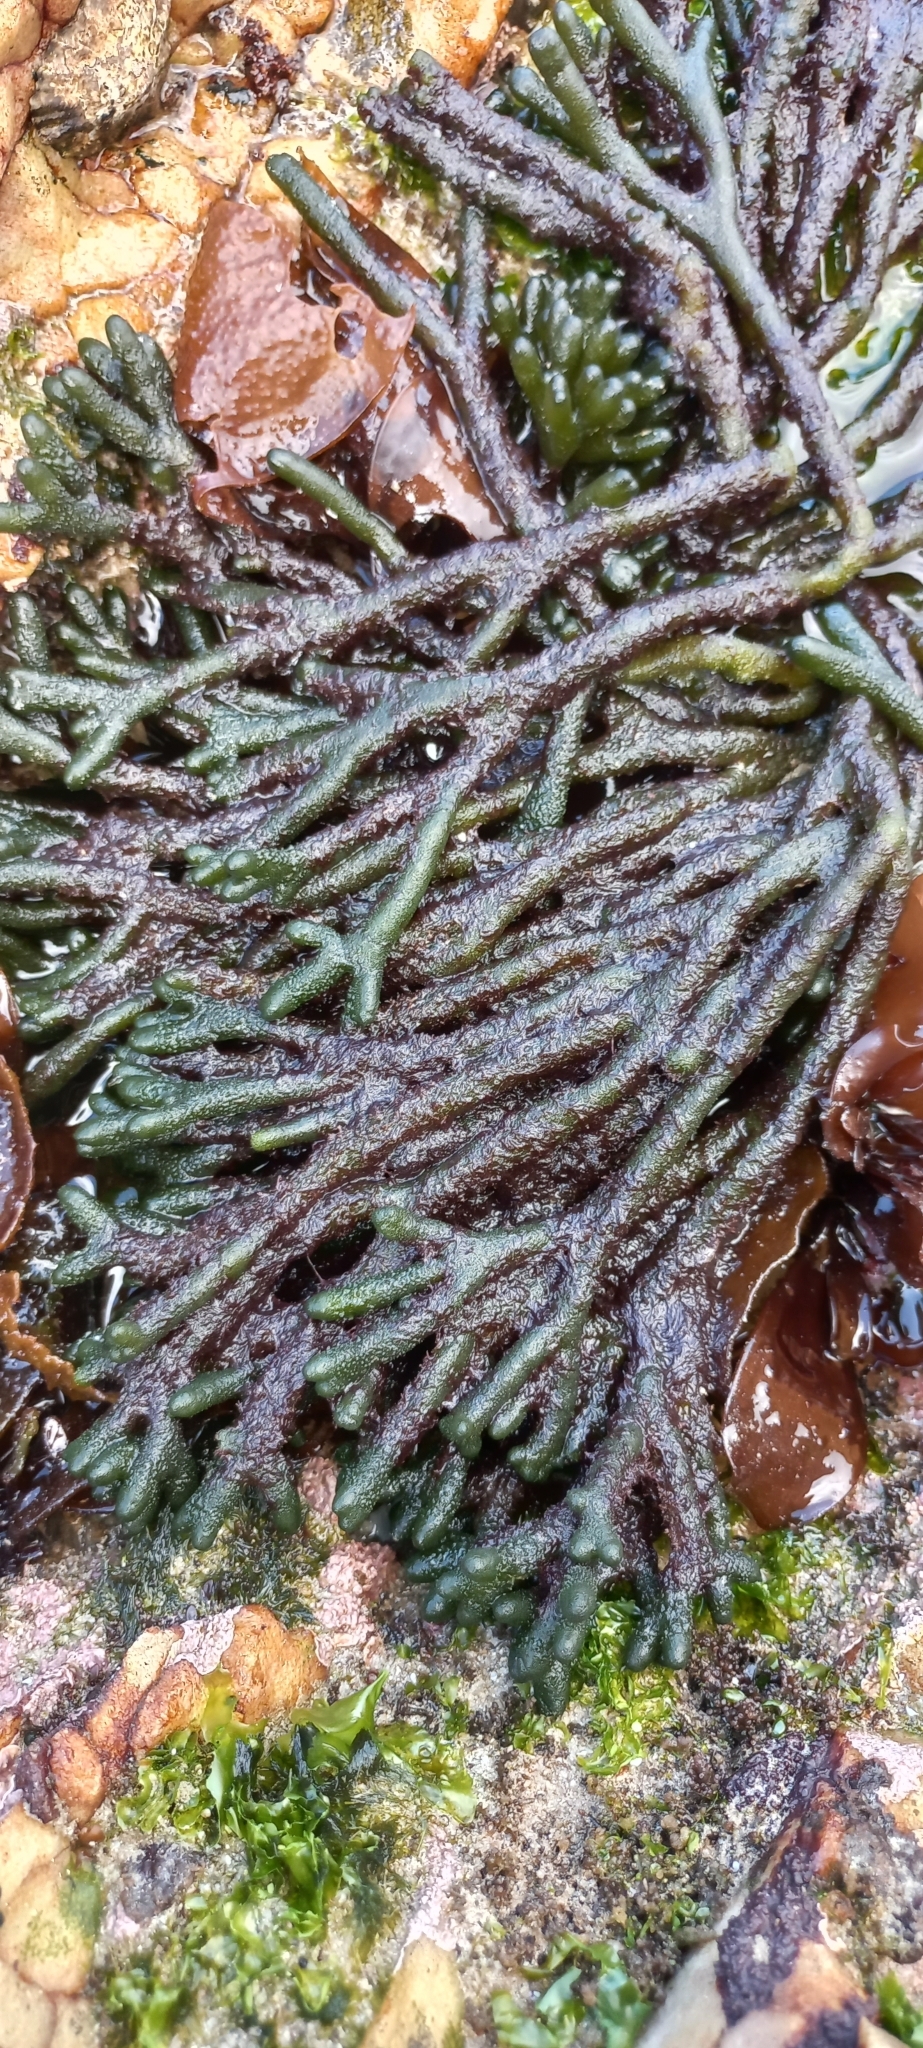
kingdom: Plantae
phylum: Chlorophyta
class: Ulvophyceae
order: Bryopsidales
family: Codiaceae
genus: Codium
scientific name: Codium fragile
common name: Dead man's fingers
